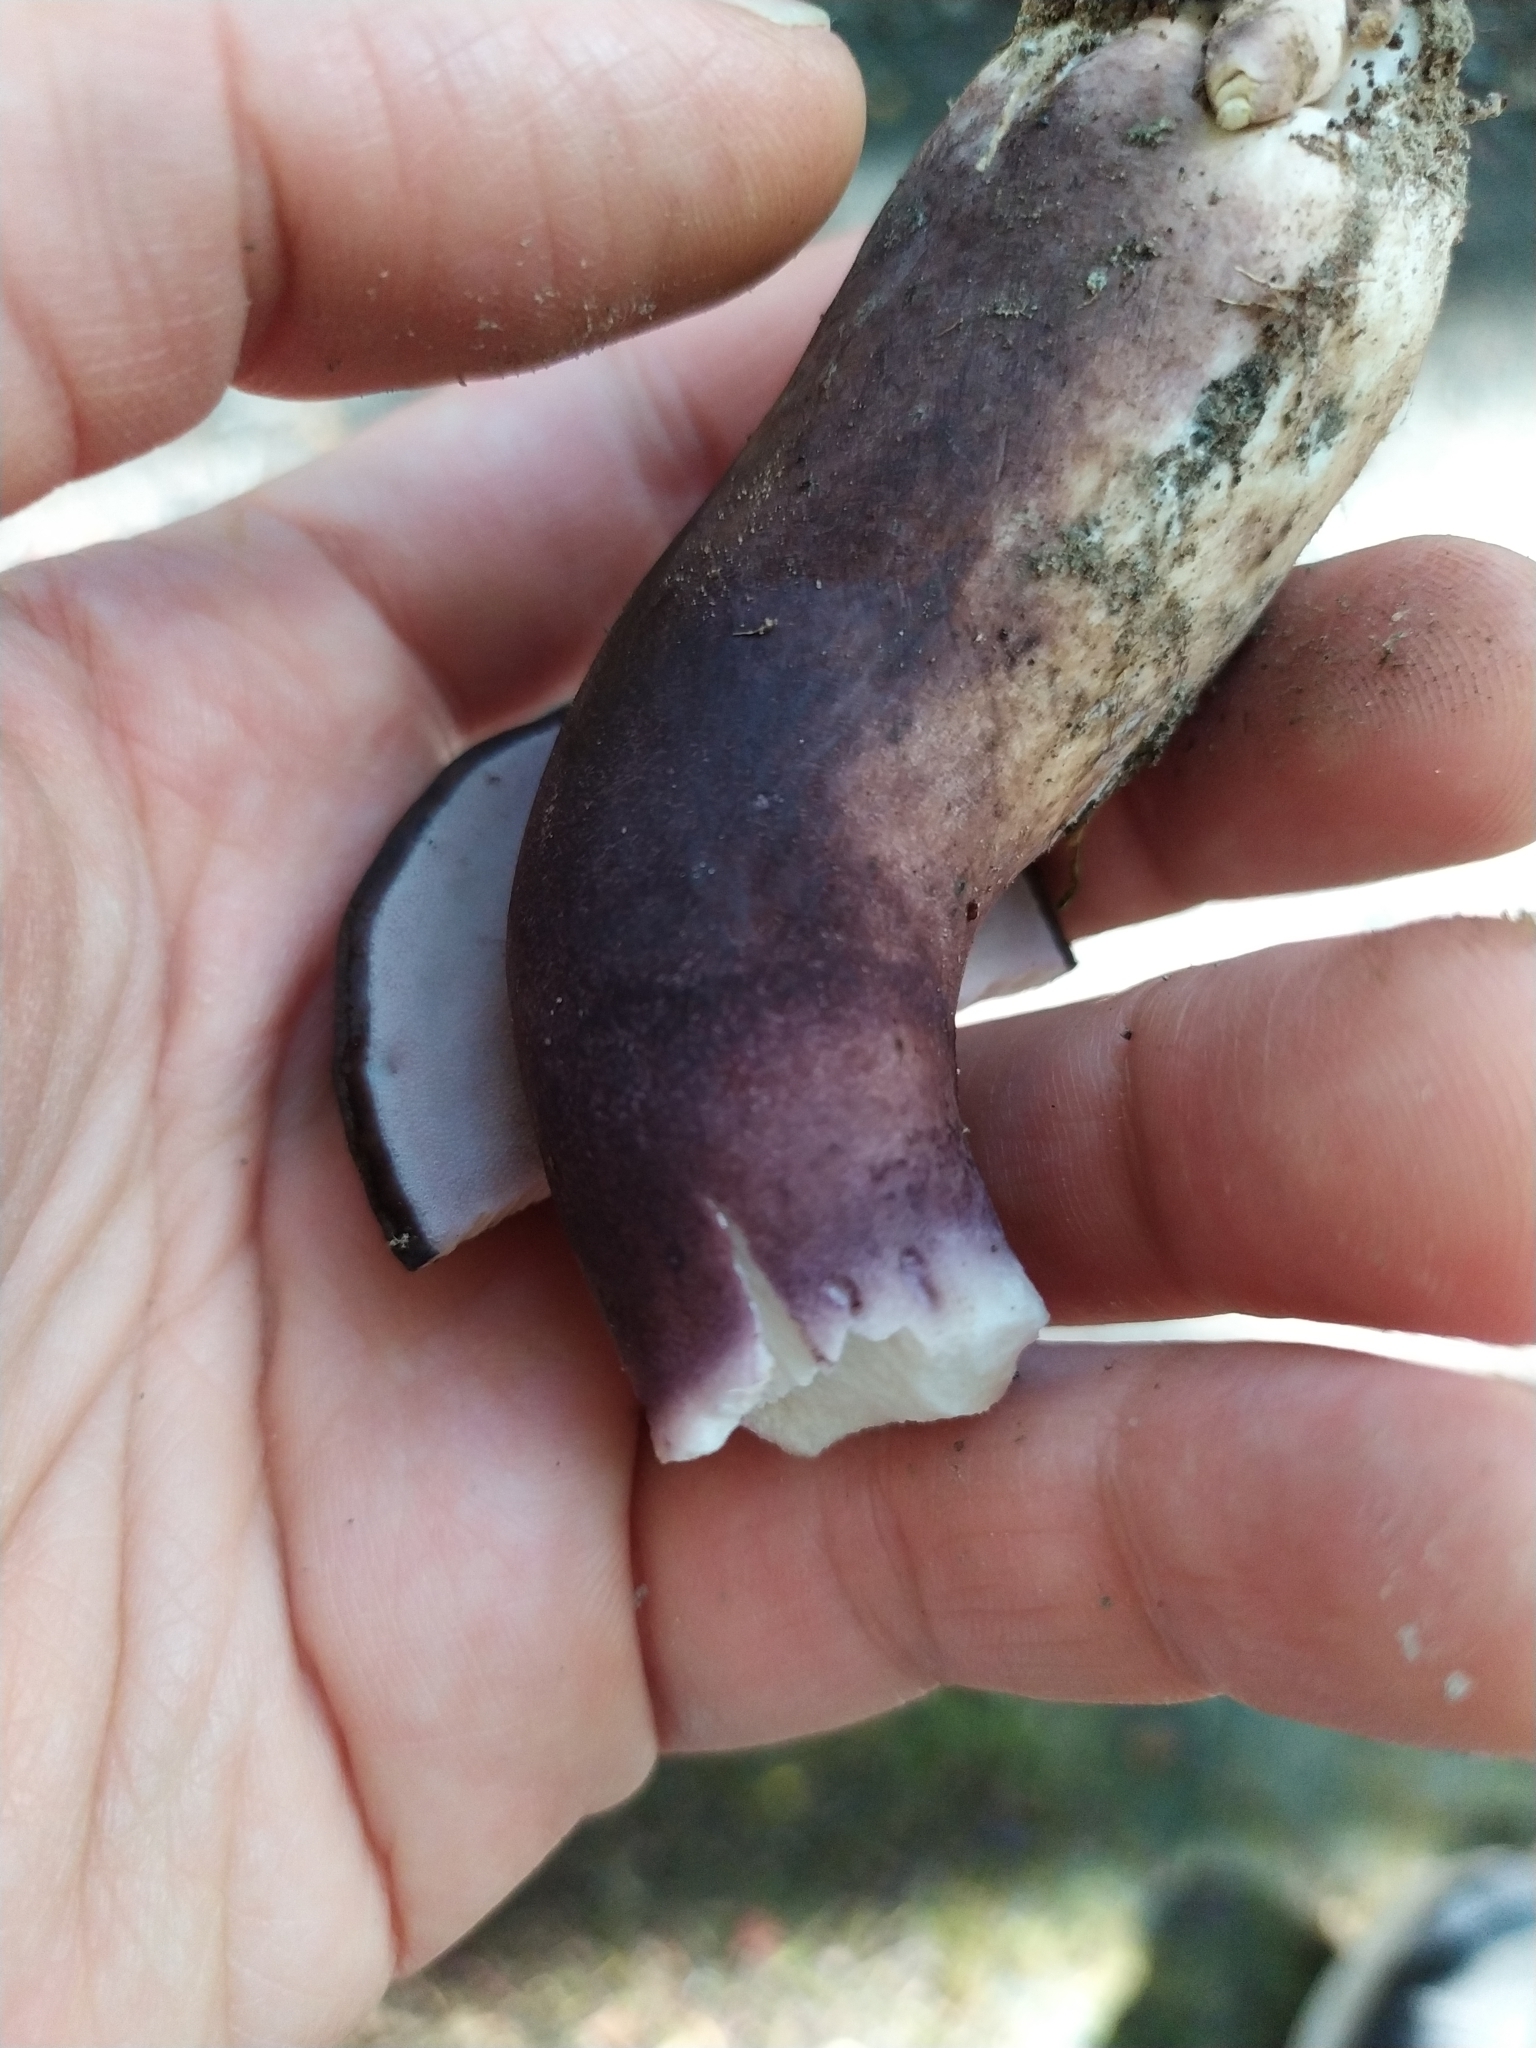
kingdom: Fungi
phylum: Basidiomycota
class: Agaricomycetes
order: Boletales
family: Boletaceae
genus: Porphyrellus
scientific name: Porphyrellus formosus
